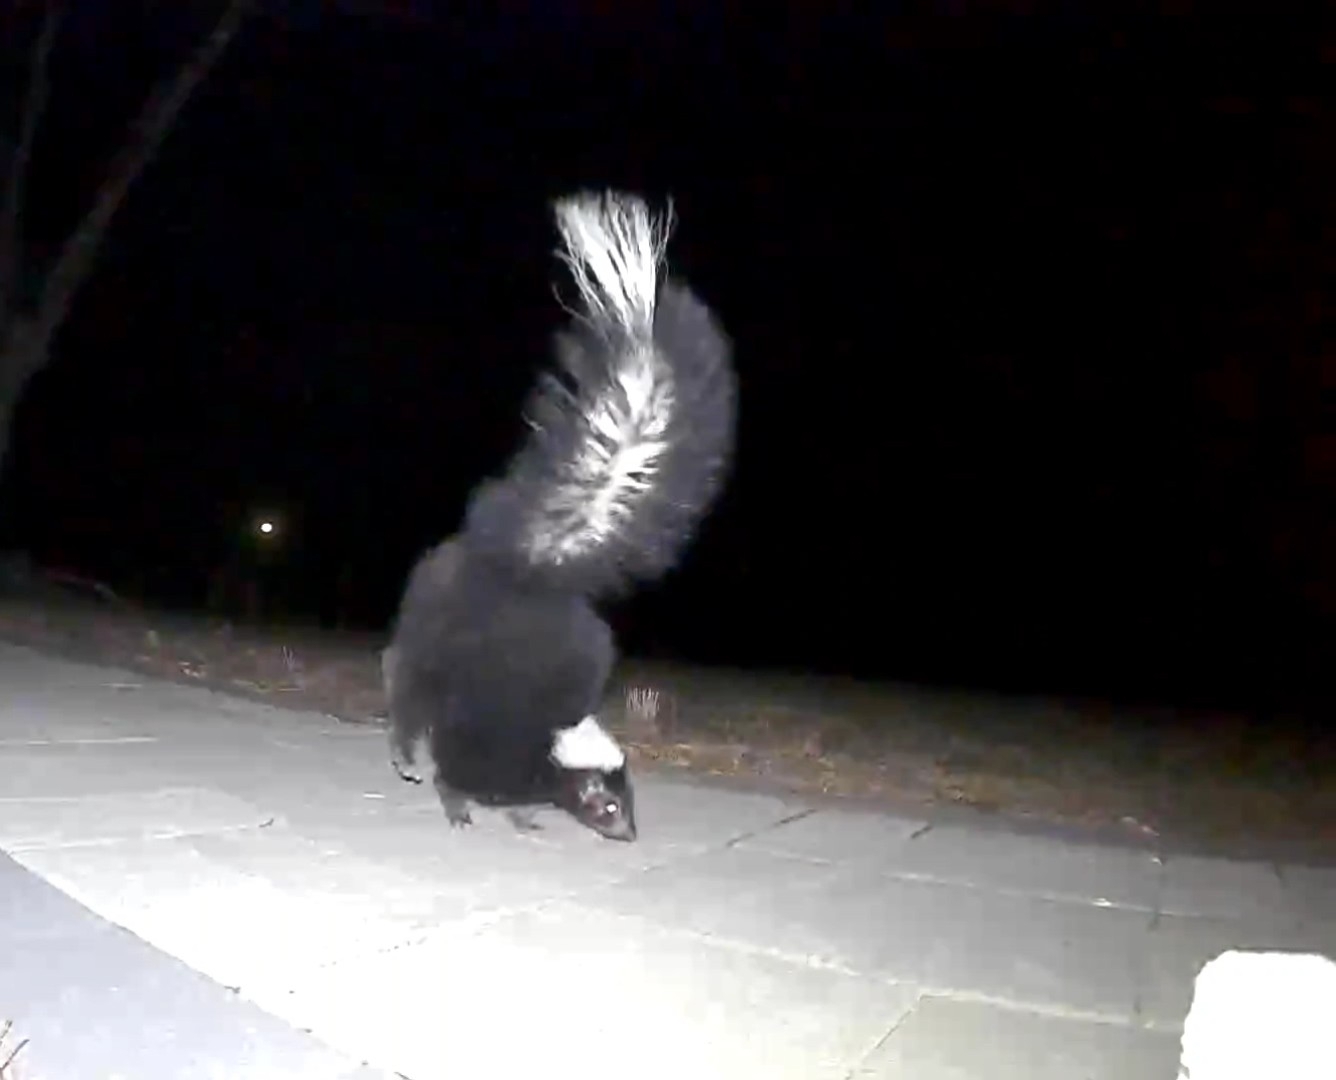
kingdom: Animalia
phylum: Chordata
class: Mammalia
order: Carnivora
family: Mephitidae
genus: Mephitis
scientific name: Mephitis mephitis
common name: Striped skunk
